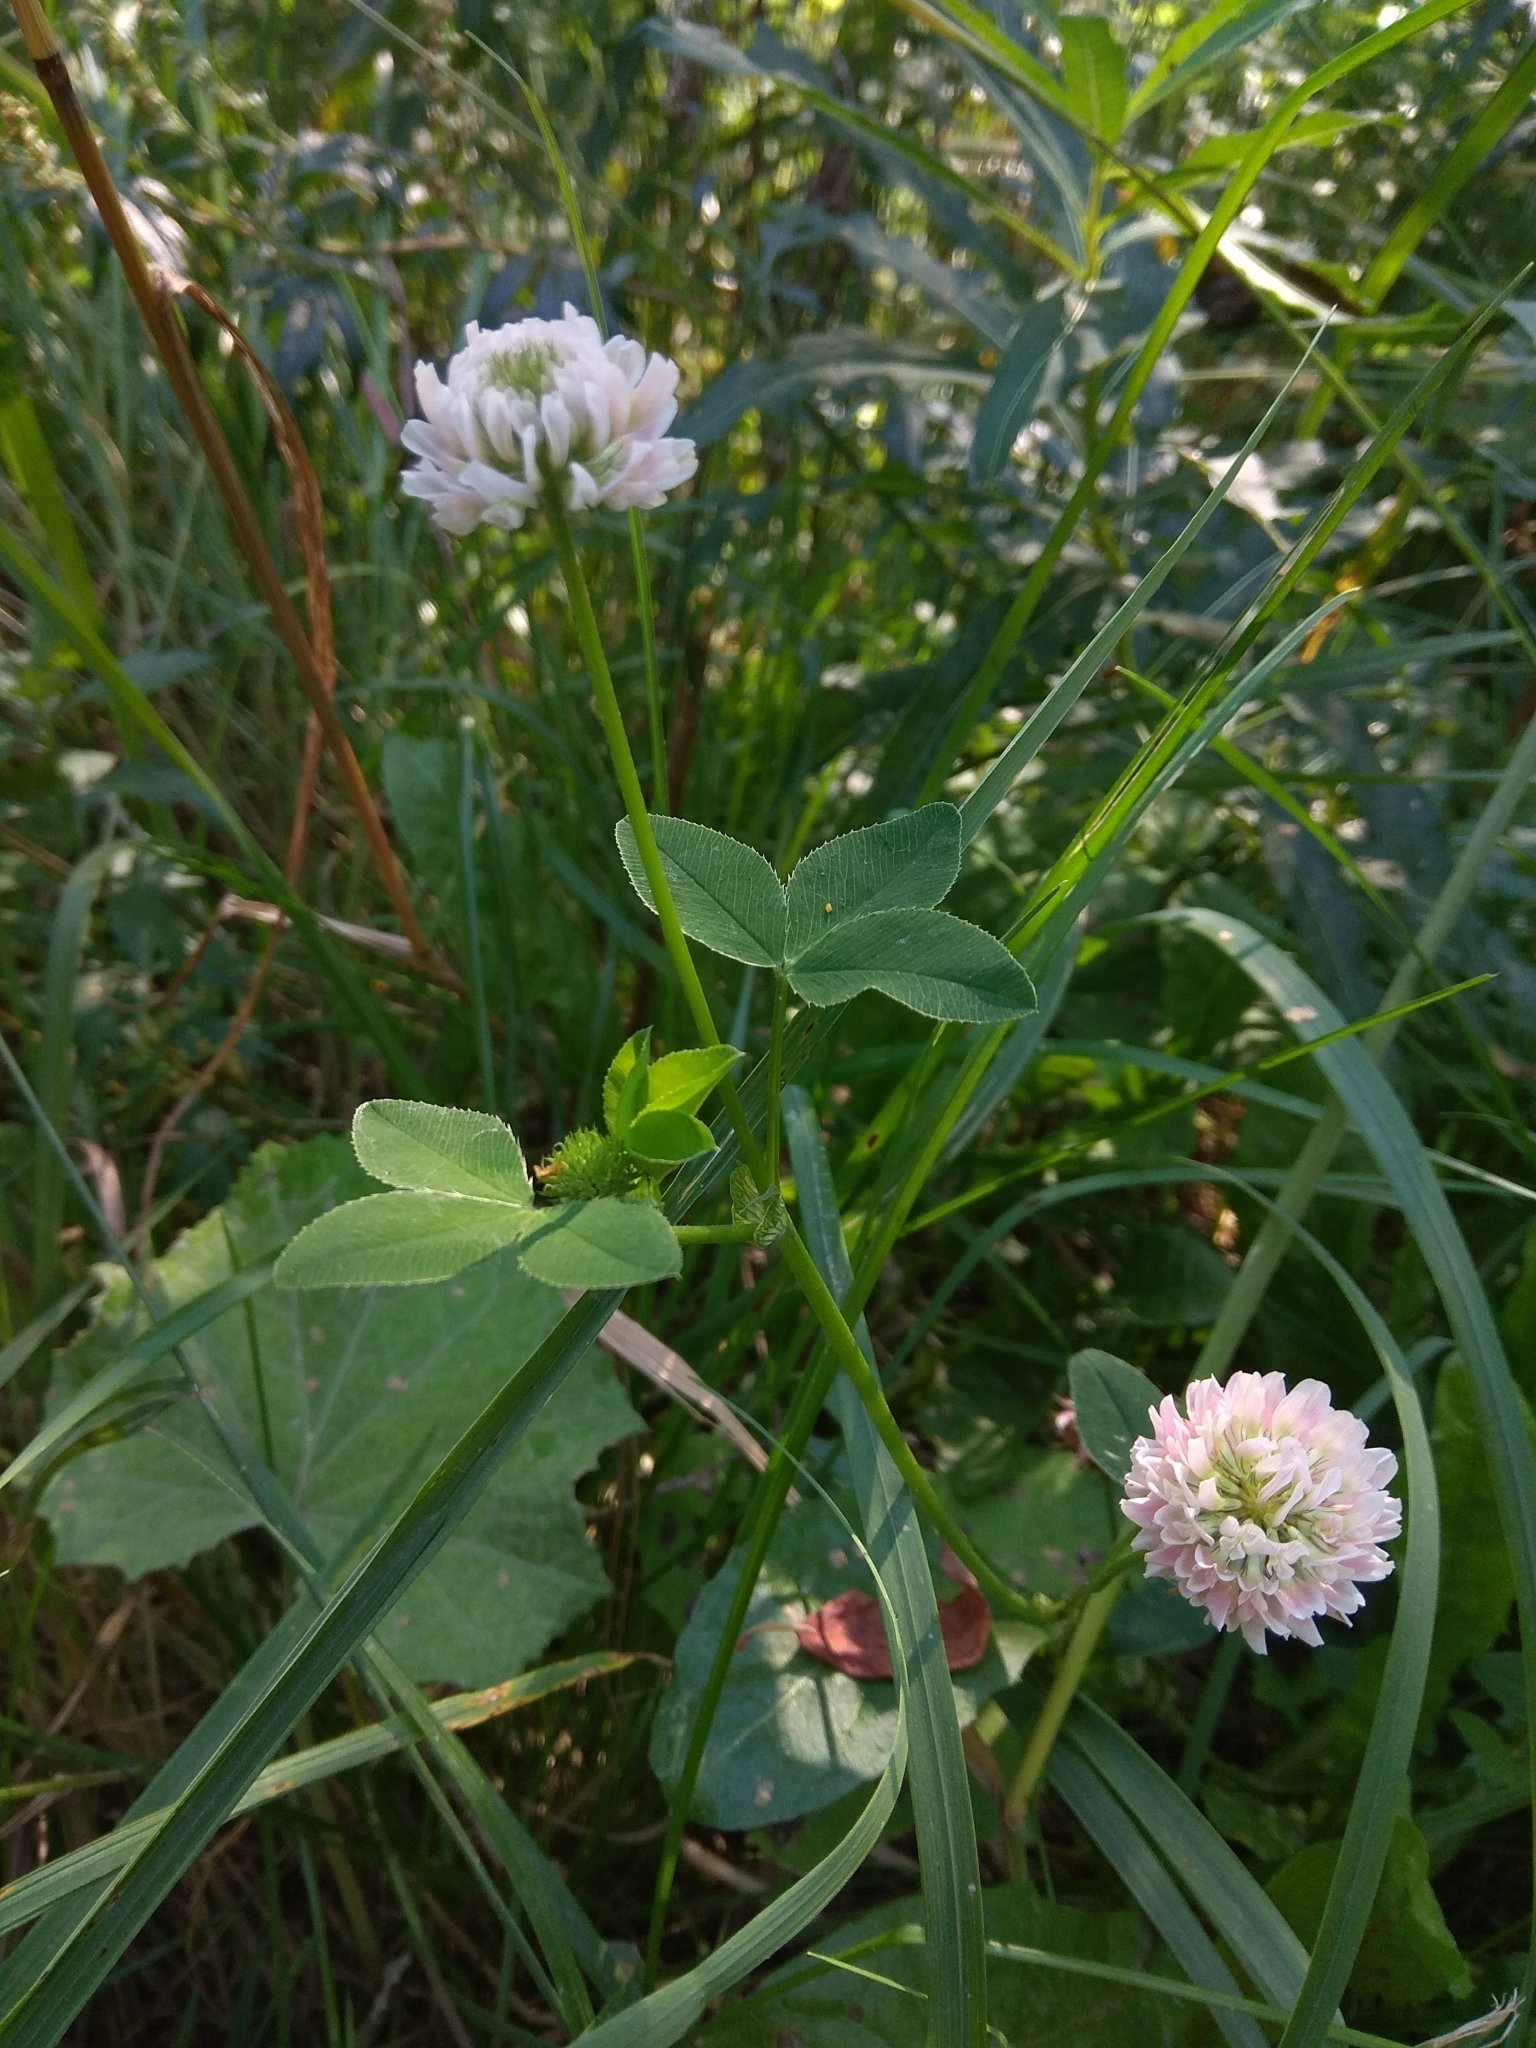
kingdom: Plantae
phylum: Tracheophyta
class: Magnoliopsida
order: Fabales
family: Fabaceae
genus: Trifolium
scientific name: Trifolium hybridum
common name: Alsike clover
